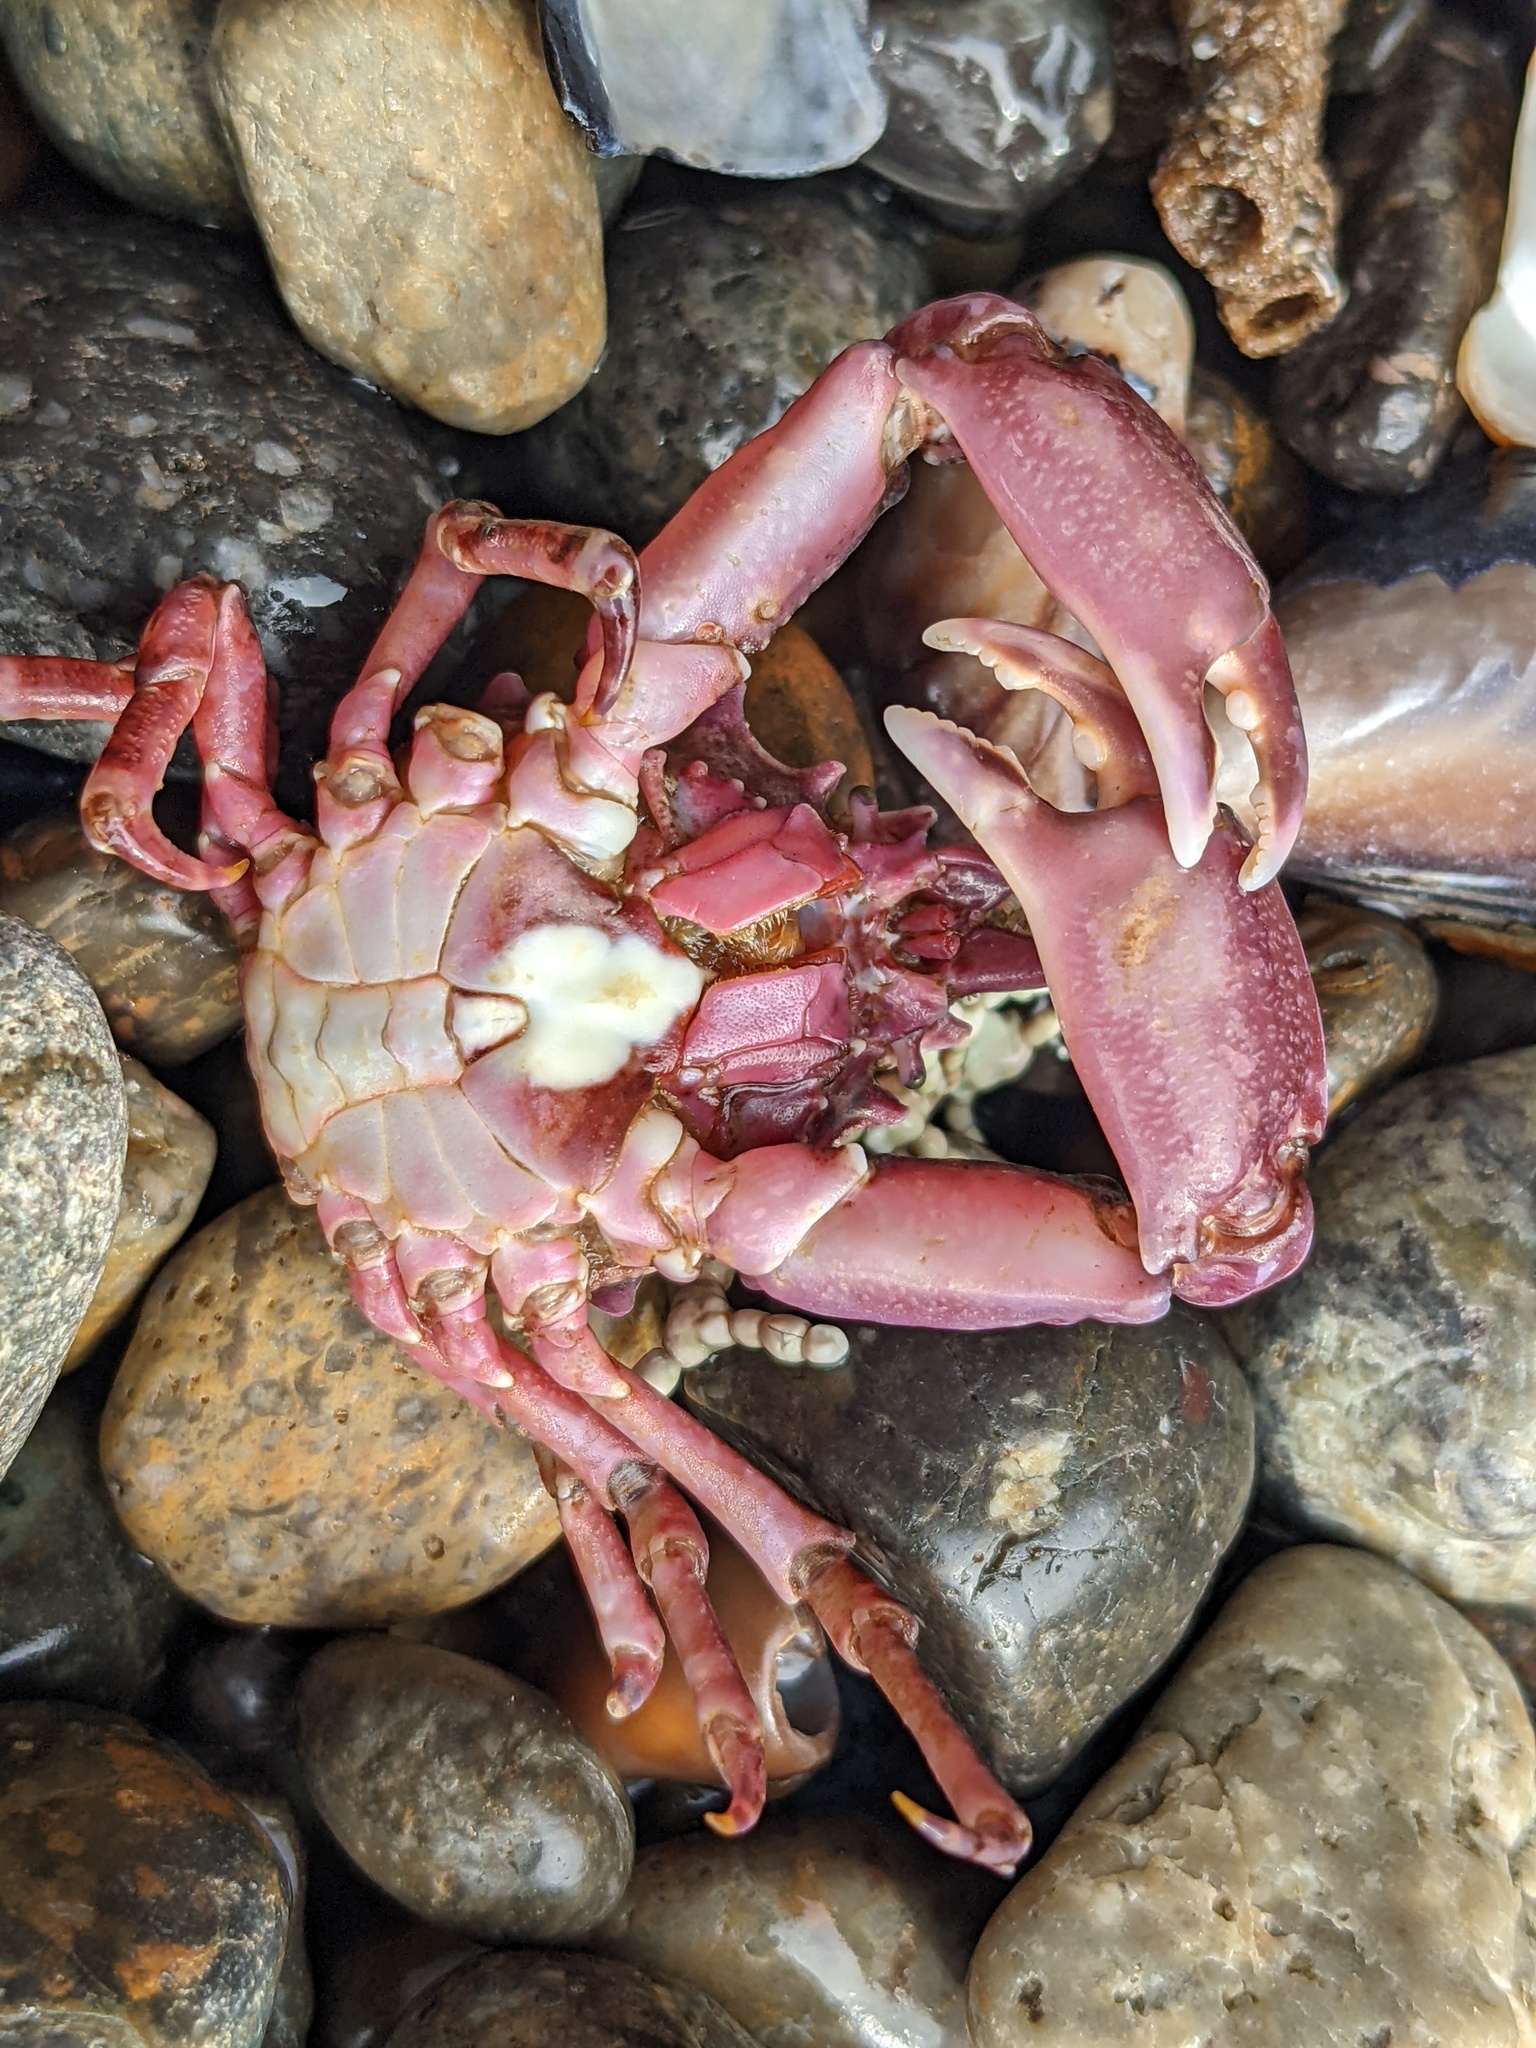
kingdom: Animalia
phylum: Arthropoda
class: Malacostraca
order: Decapoda
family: Epialtidae
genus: Pugettia
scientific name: Pugettia richii
